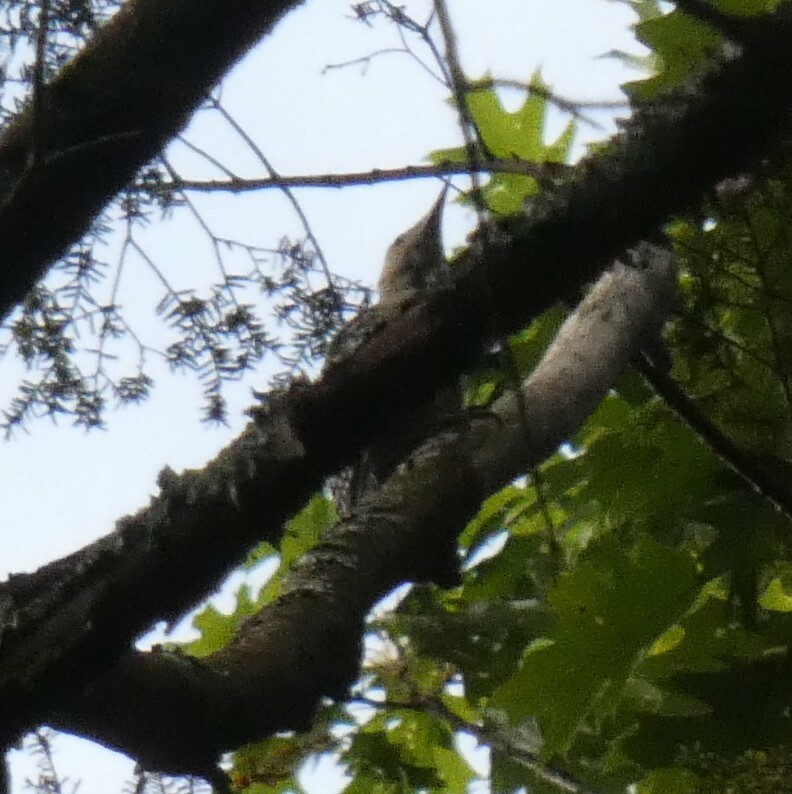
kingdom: Animalia
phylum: Chordata
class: Aves
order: Piciformes
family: Picidae
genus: Colaptes
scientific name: Colaptes auratus
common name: Northern flicker
